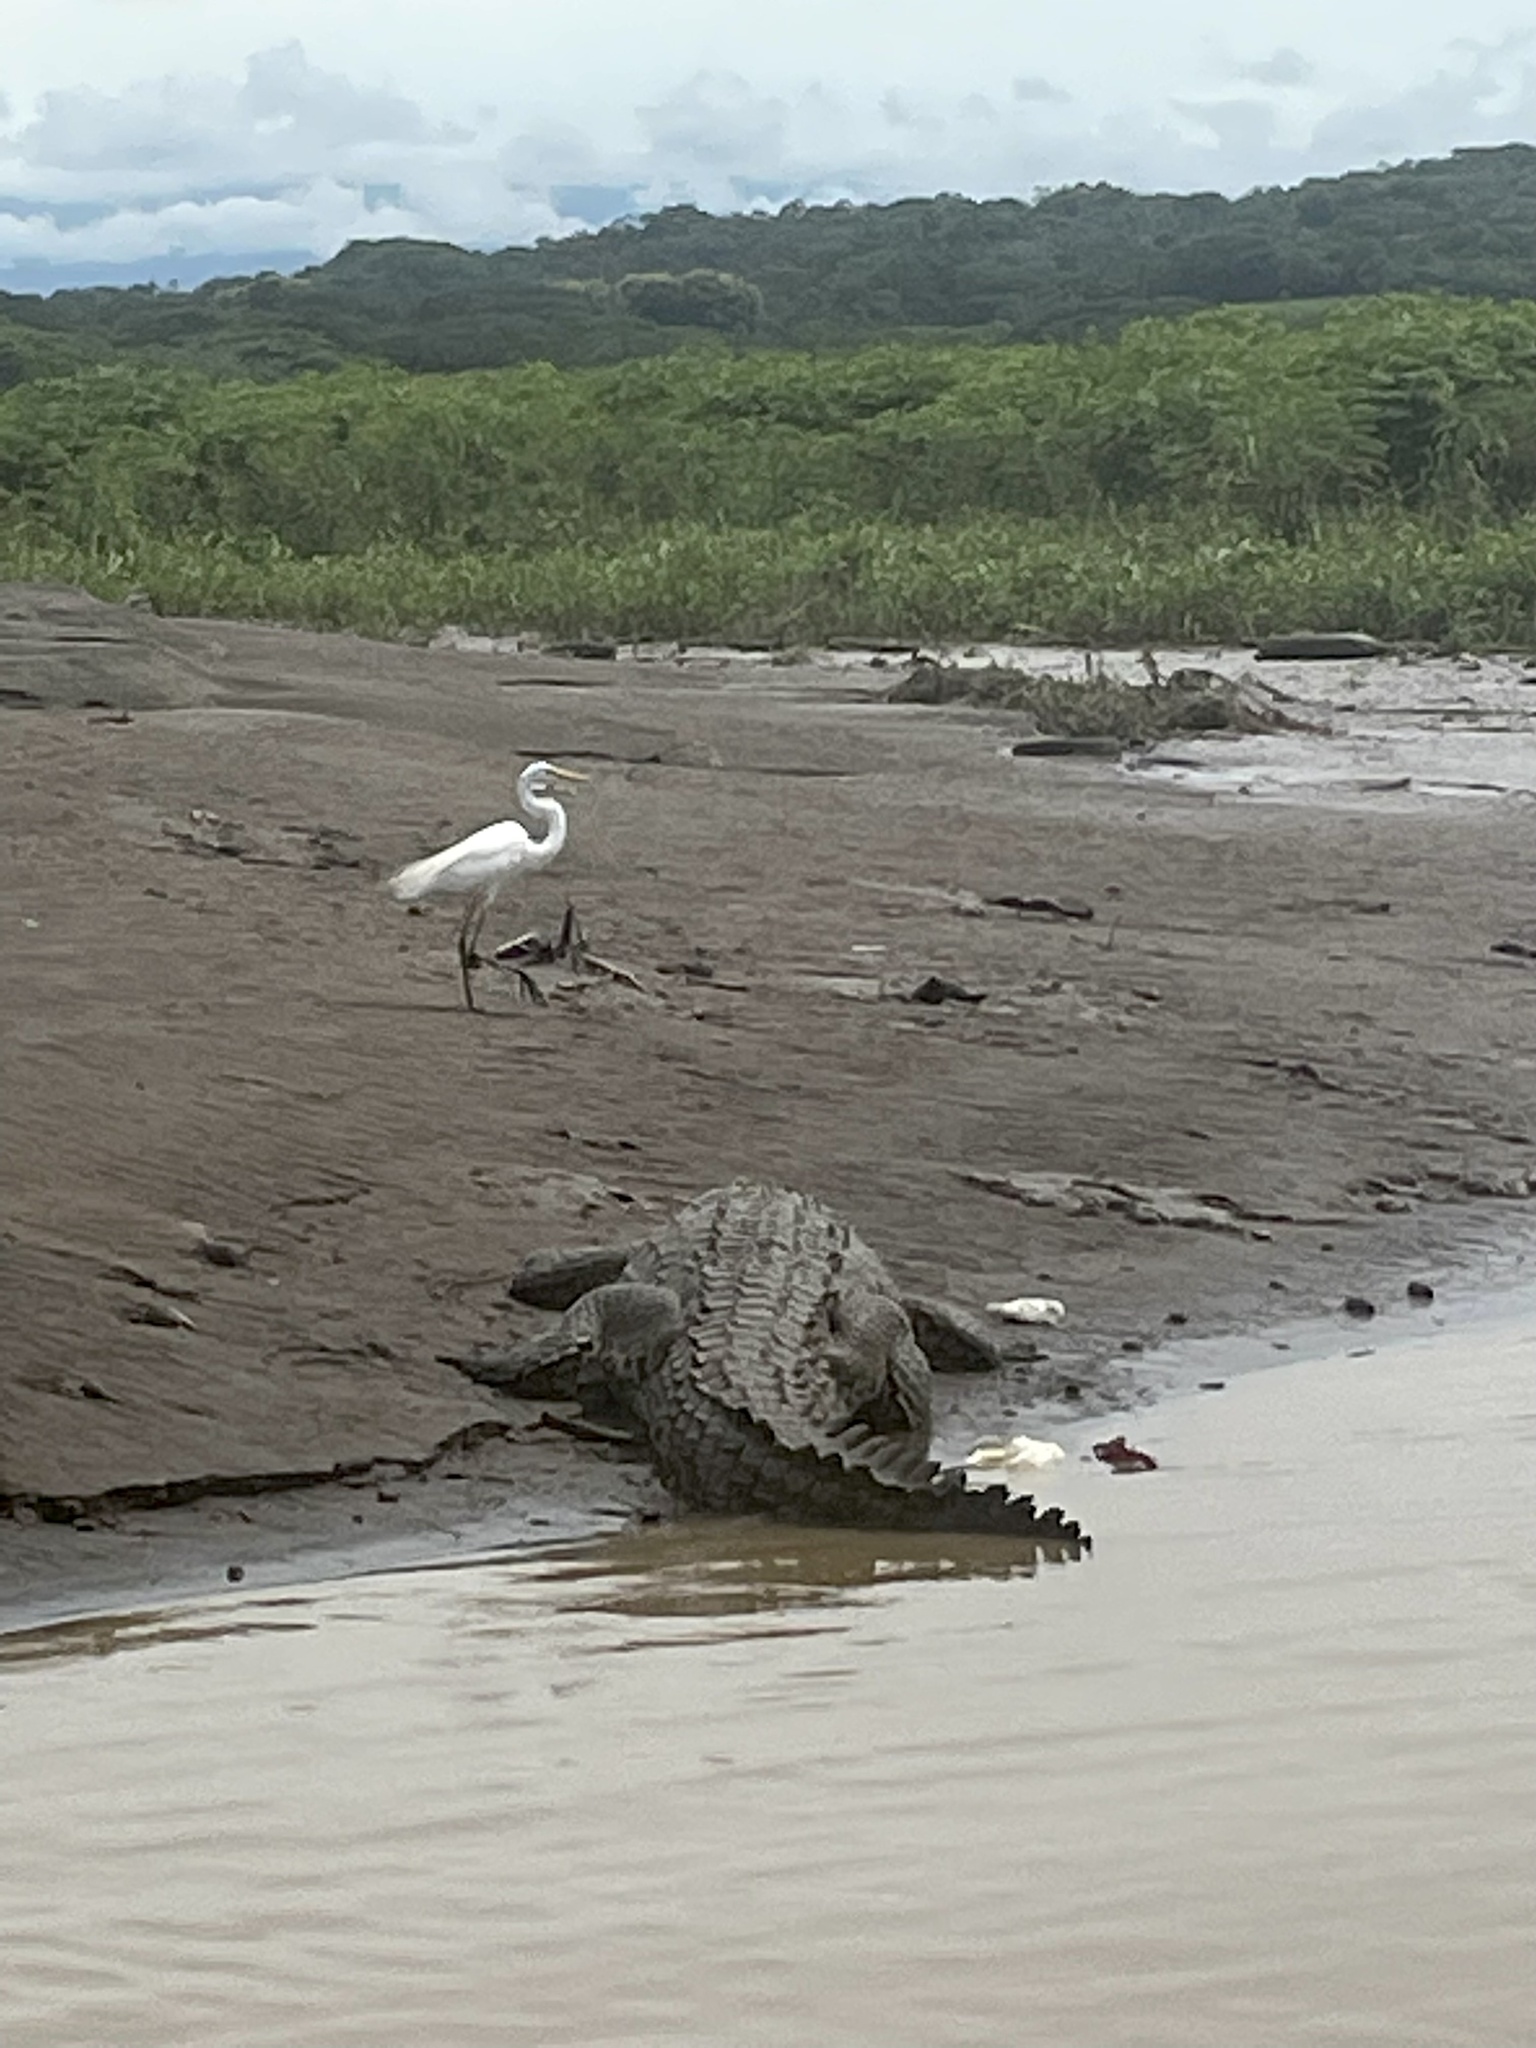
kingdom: Animalia
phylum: Chordata
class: Crocodylia
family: Crocodylidae
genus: Crocodylus
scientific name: Crocodylus acutus
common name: American crocodile
